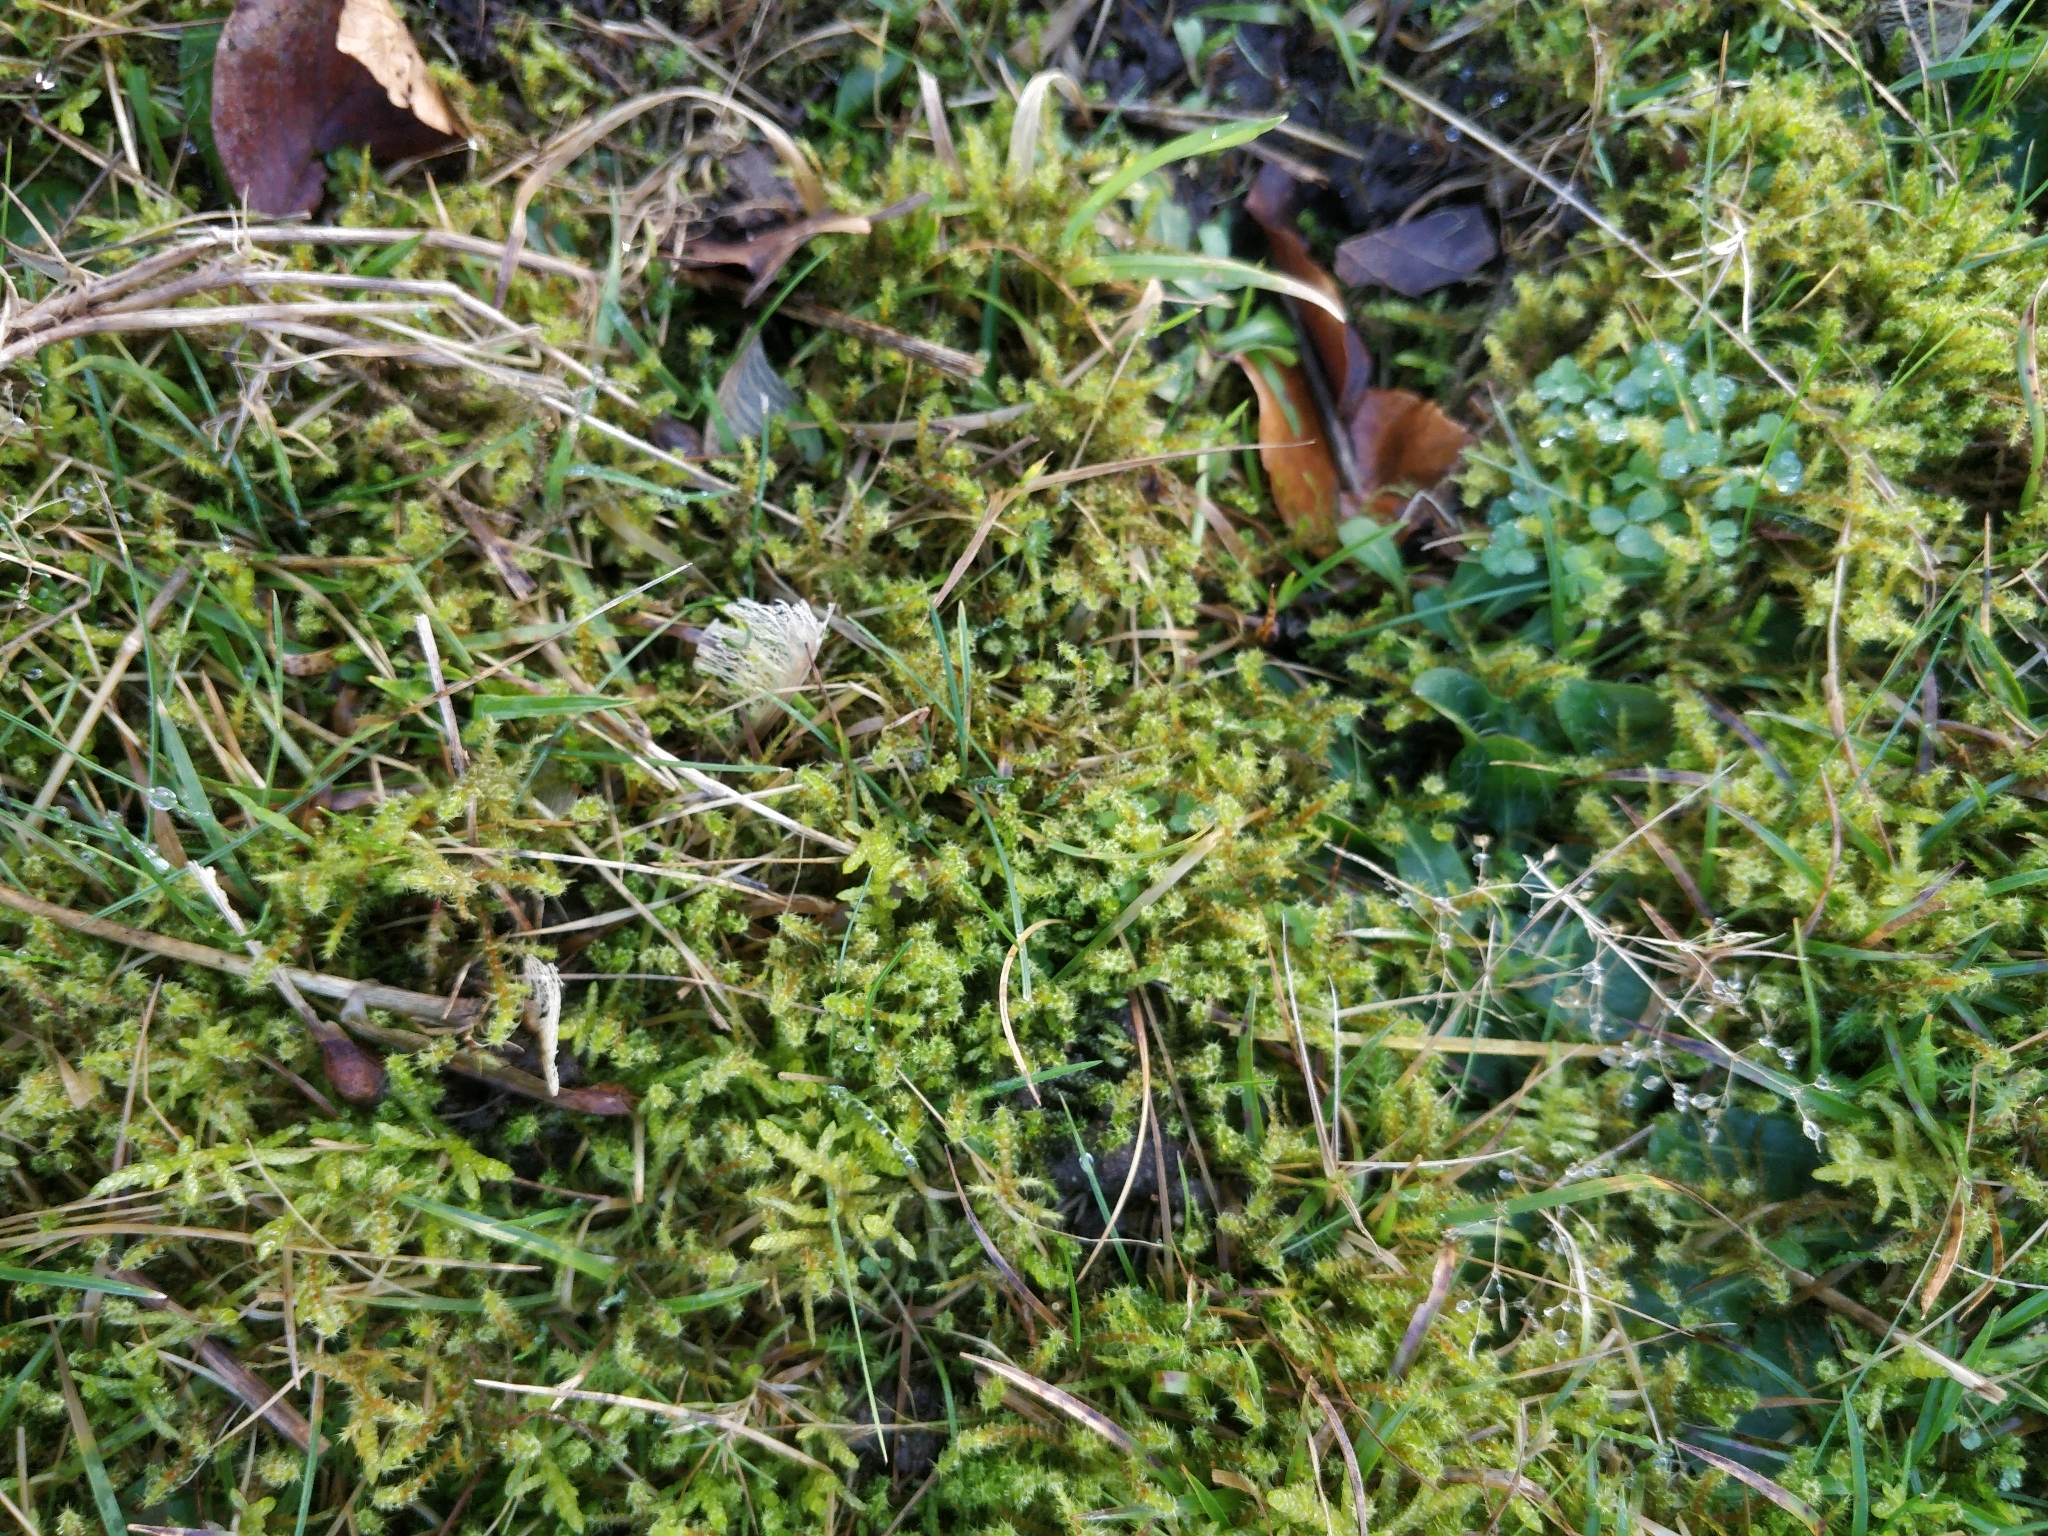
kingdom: Plantae
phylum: Bryophyta
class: Bryopsida
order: Hypnales
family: Hylocomiaceae
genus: Rhytidiadelphus
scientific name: Rhytidiadelphus squarrosus
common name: Springy turf-moss
